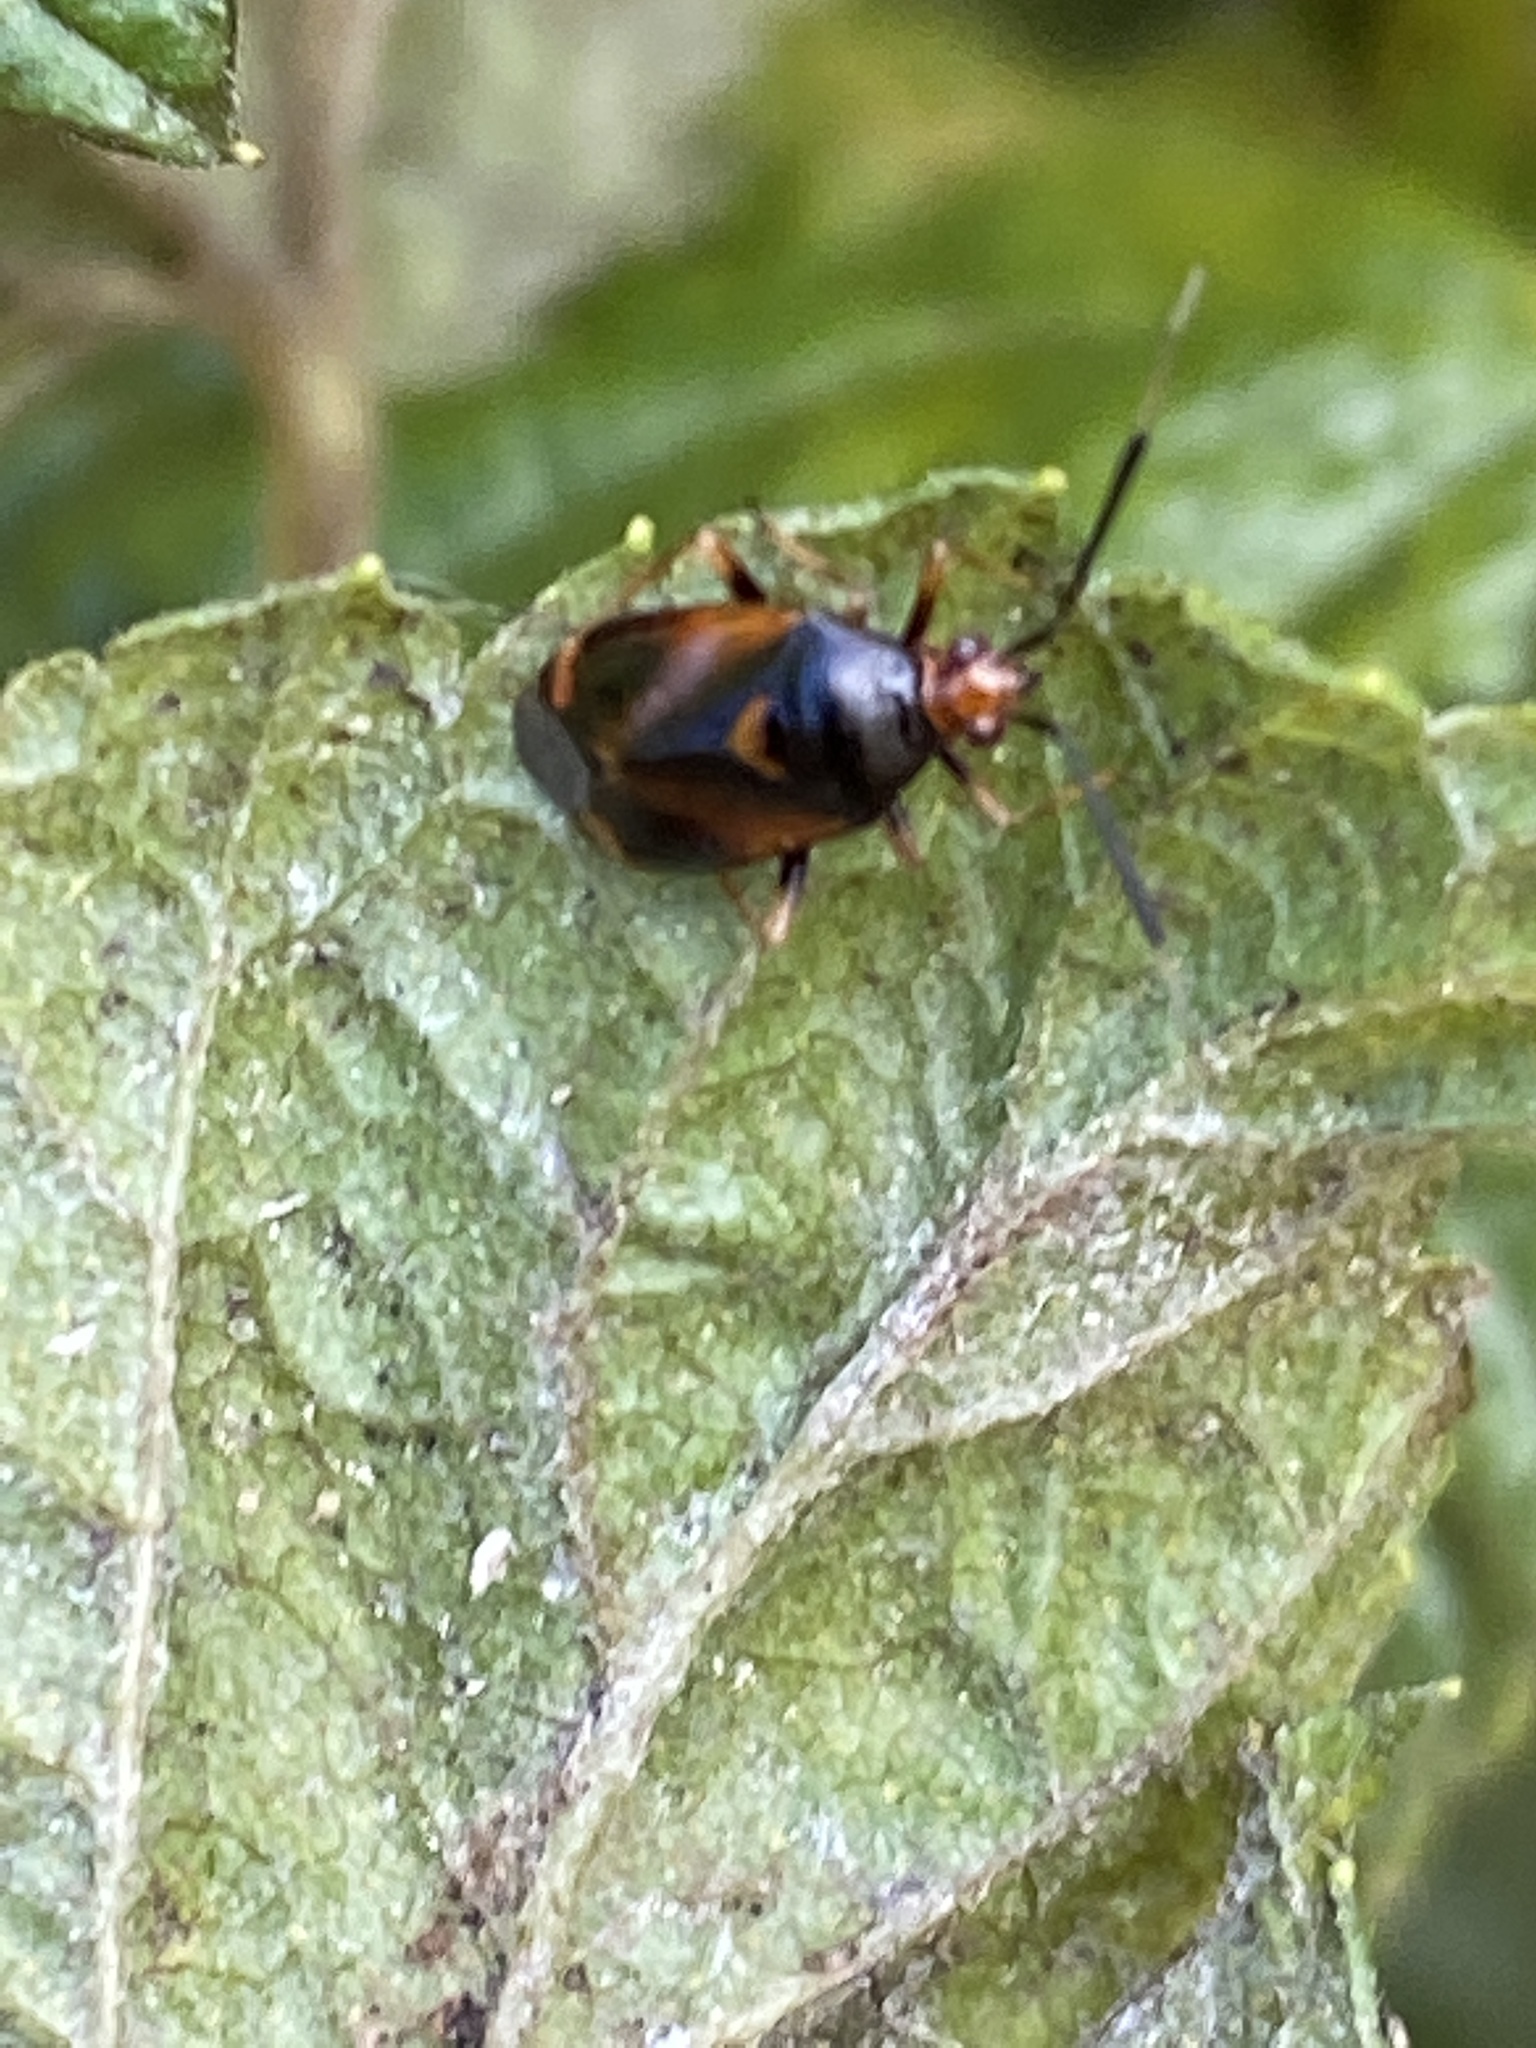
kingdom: Animalia
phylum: Arthropoda
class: Insecta
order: Hemiptera
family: Miridae
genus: Deraeocoris
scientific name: Deraeocoris ruber
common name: Plant bug
